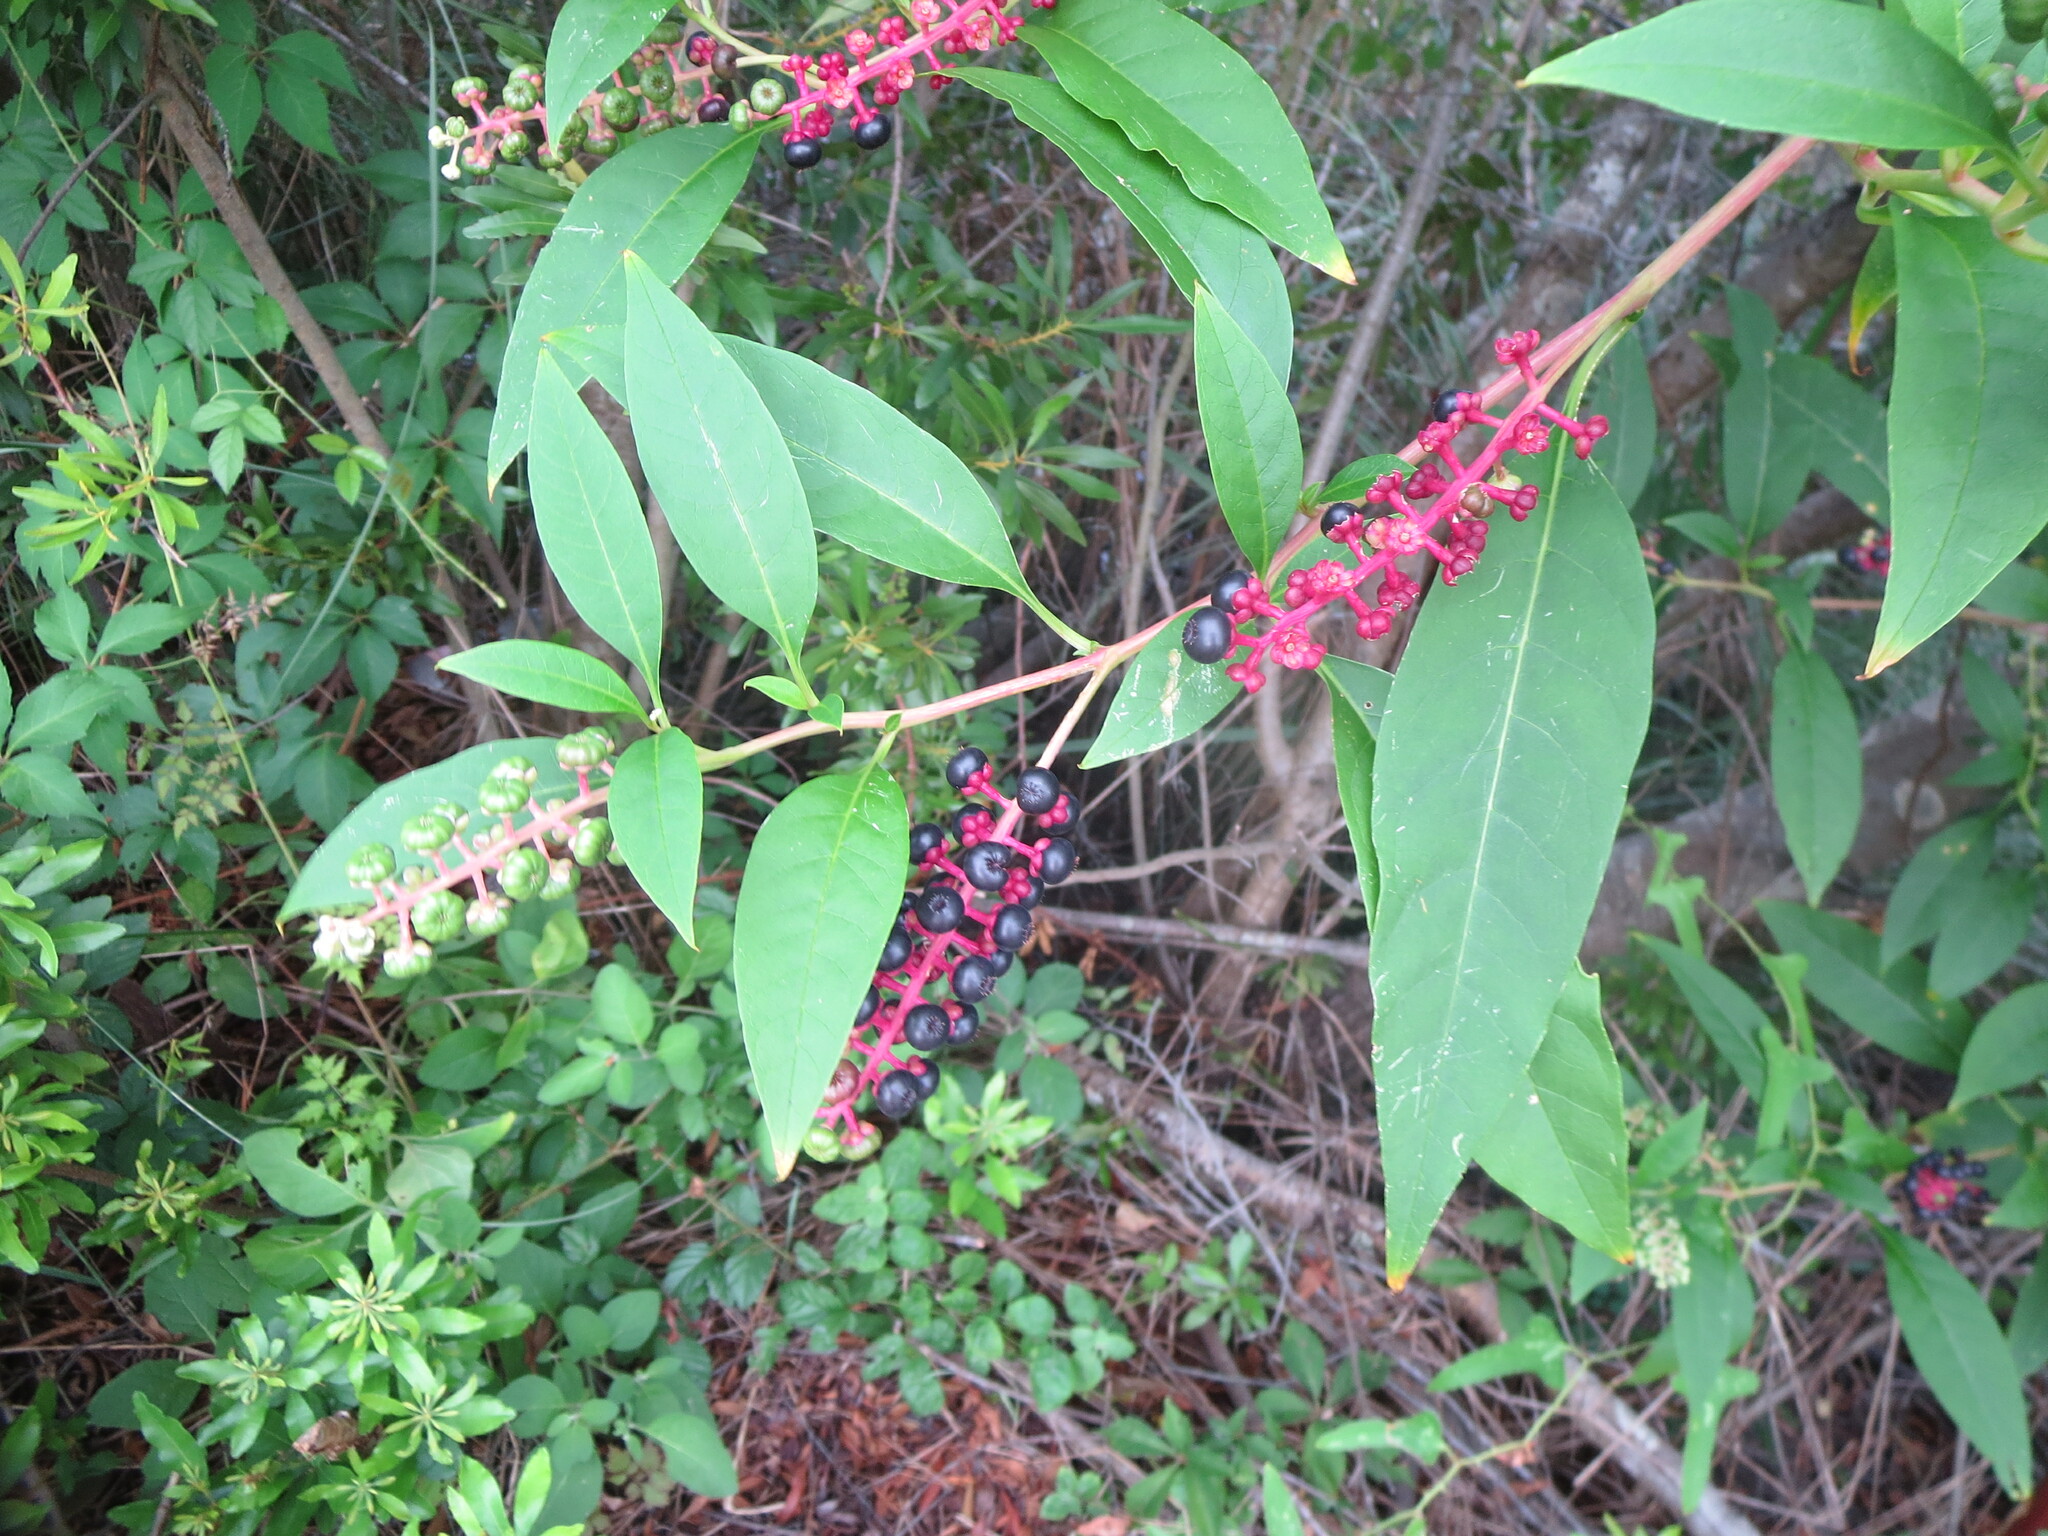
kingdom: Plantae
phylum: Tracheophyta
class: Magnoliopsida
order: Caryophyllales
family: Phytolaccaceae
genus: Phytolacca
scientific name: Phytolacca americana
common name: American pokeweed
